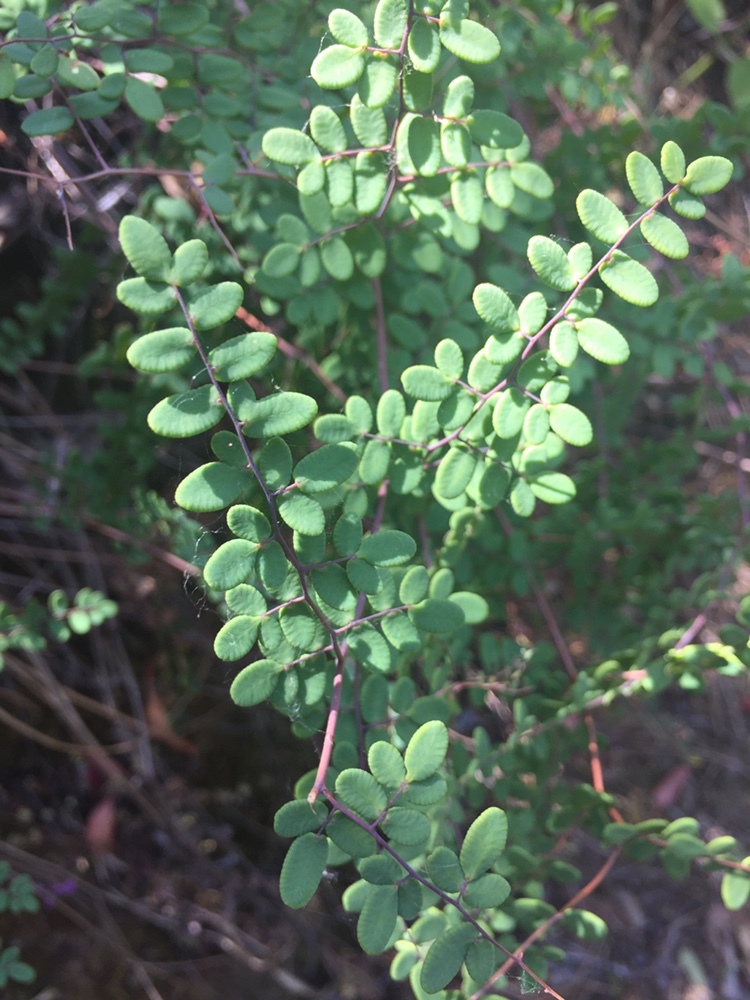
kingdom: Plantae
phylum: Tracheophyta
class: Polypodiopsida
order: Polypodiales
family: Pteridaceae
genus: Pellaea
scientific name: Pellaea andromedifolia
